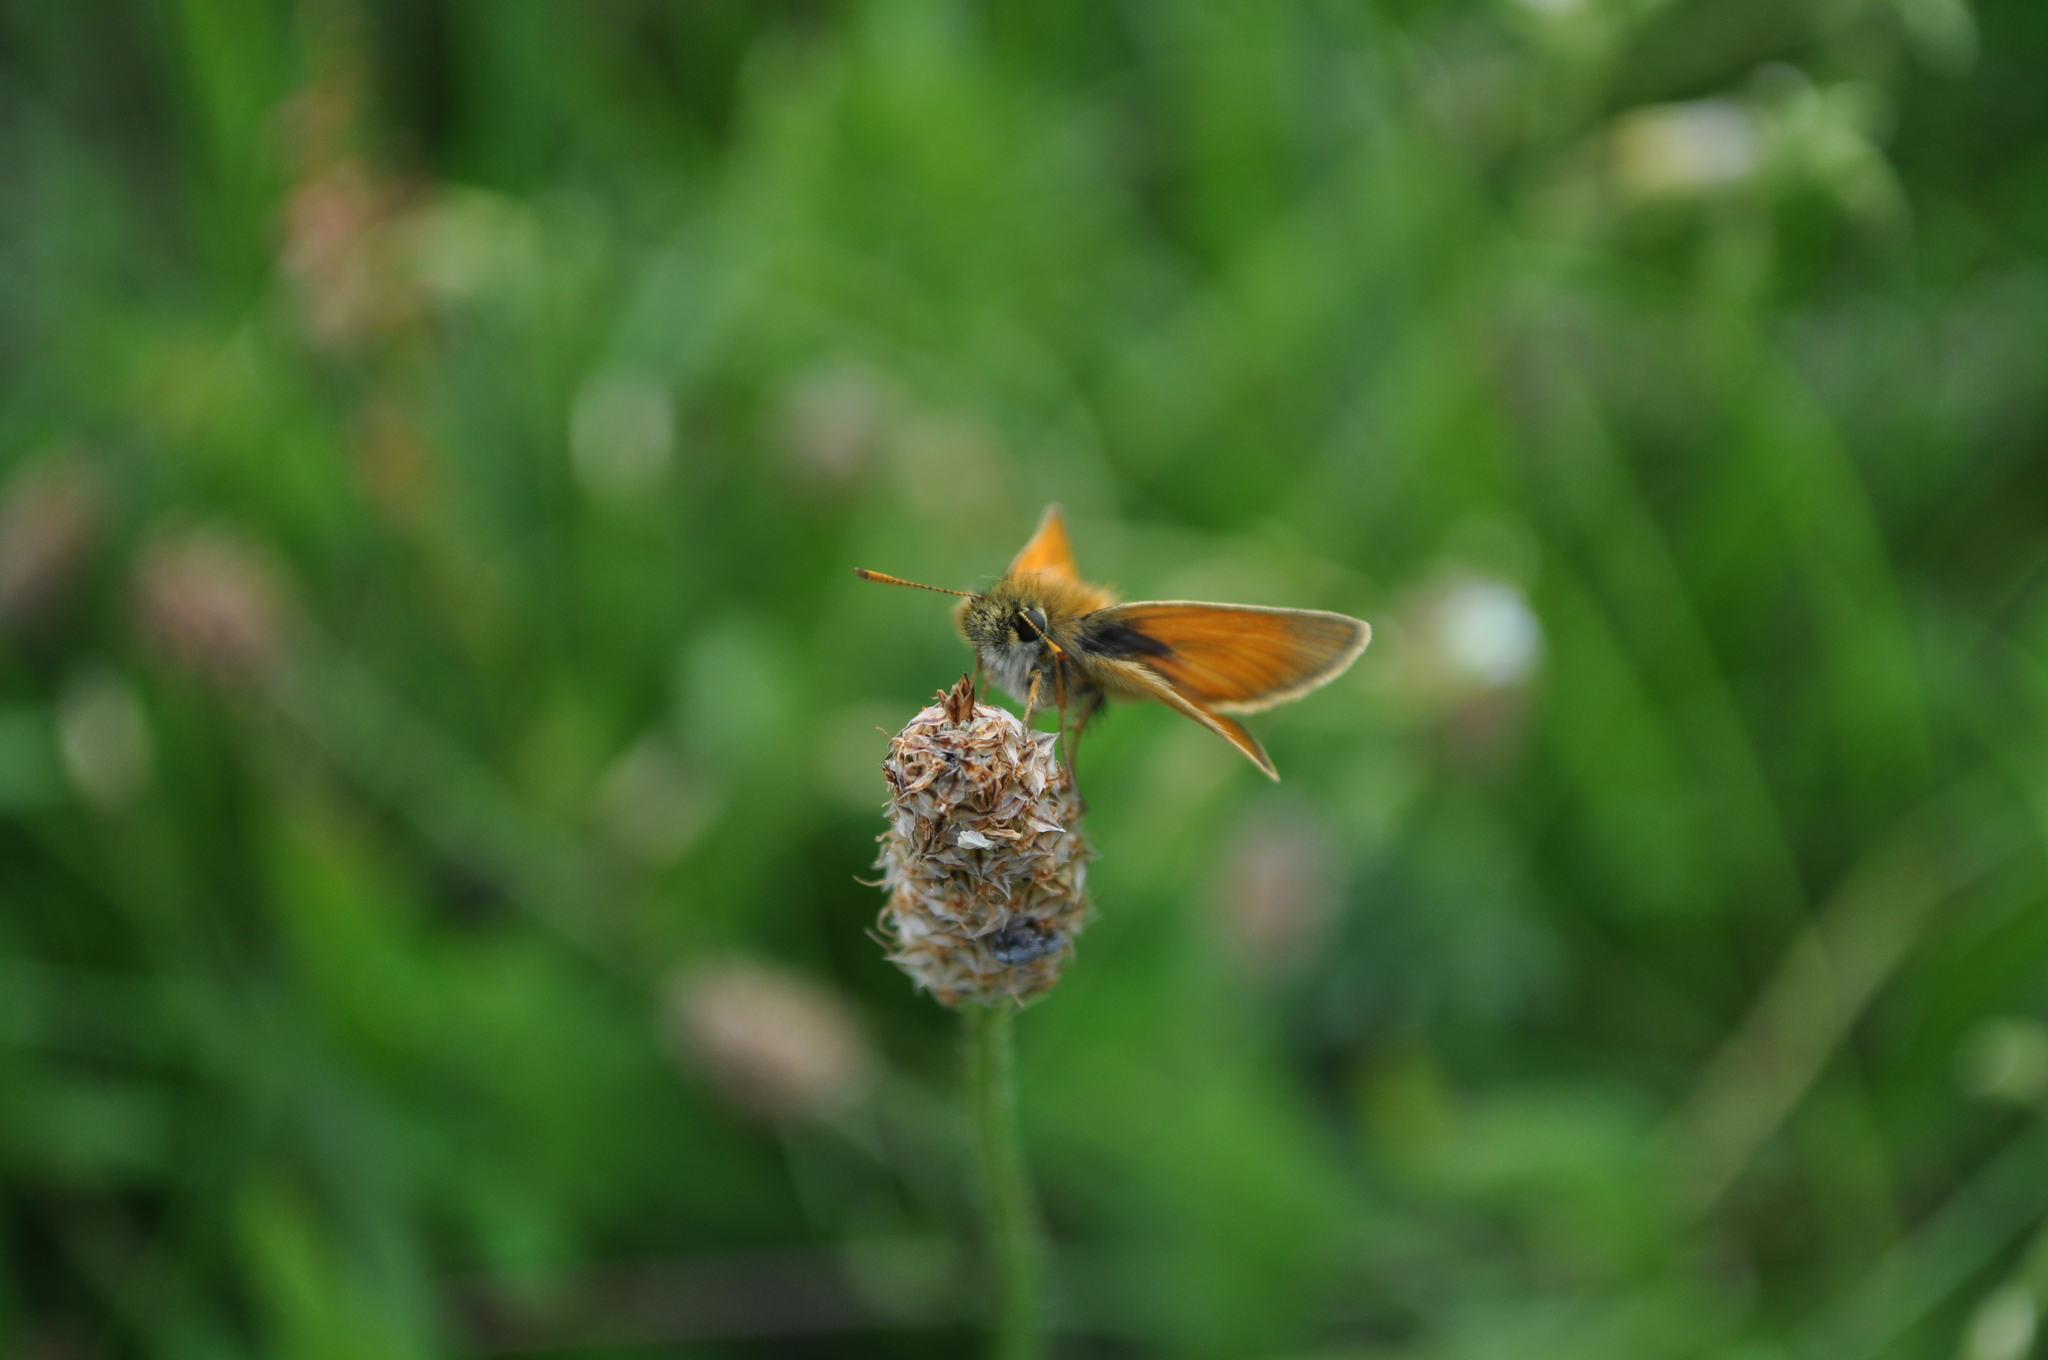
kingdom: Animalia
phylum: Arthropoda
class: Insecta
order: Lepidoptera
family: Hesperiidae
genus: Thymelicus
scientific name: Thymelicus sylvestris
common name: Small skipper
